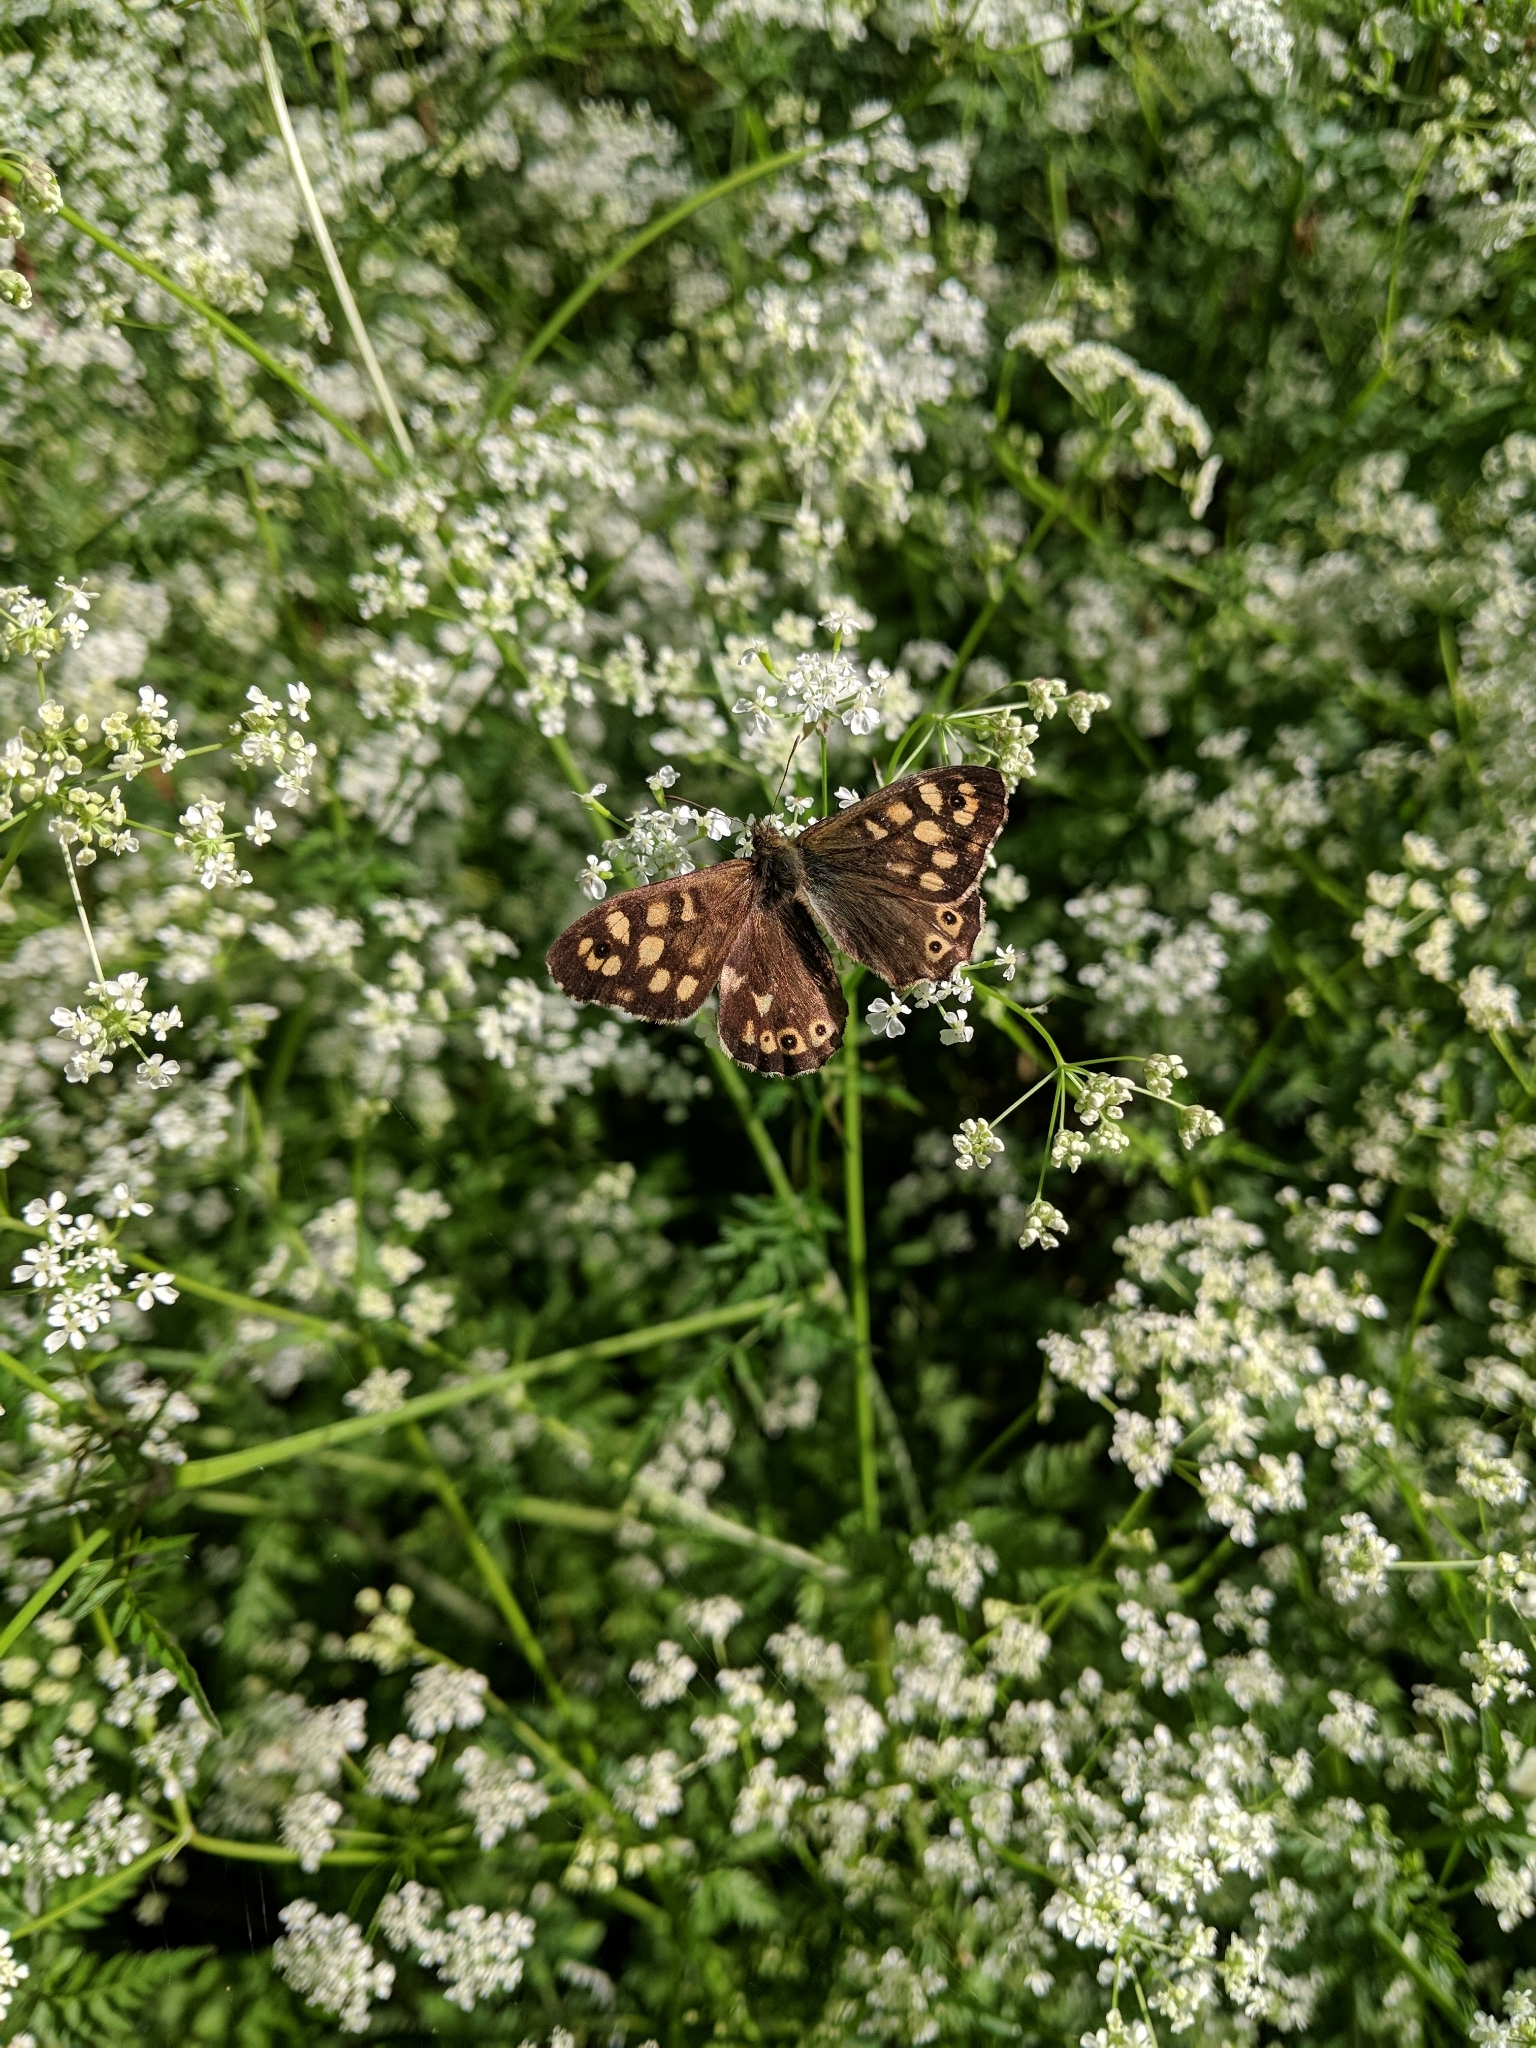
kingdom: Animalia
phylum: Arthropoda
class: Insecta
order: Lepidoptera
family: Nymphalidae
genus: Pararge
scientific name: Pararge aegeria
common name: Speckled wood
